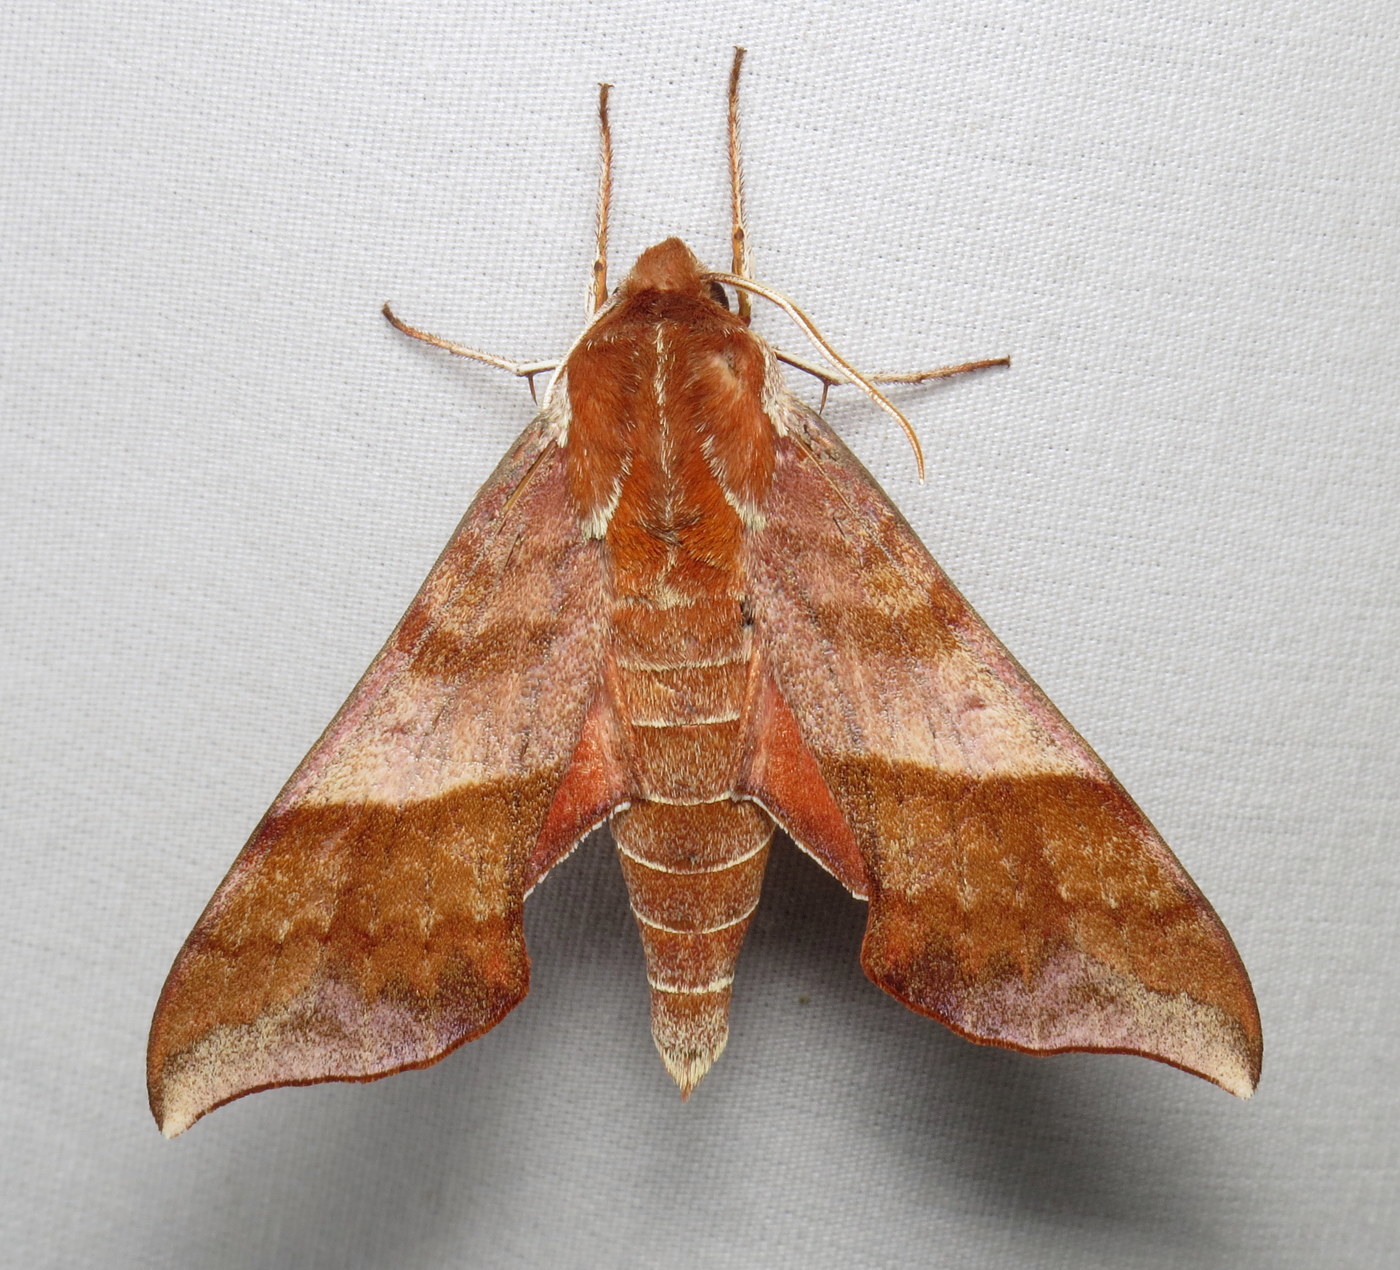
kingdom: Animalia
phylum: Arthropoda
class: Insecta
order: Lepidoptera
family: Sphingidae
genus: Darapsa
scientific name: Darapsa choerilus
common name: Azalea sphinx
